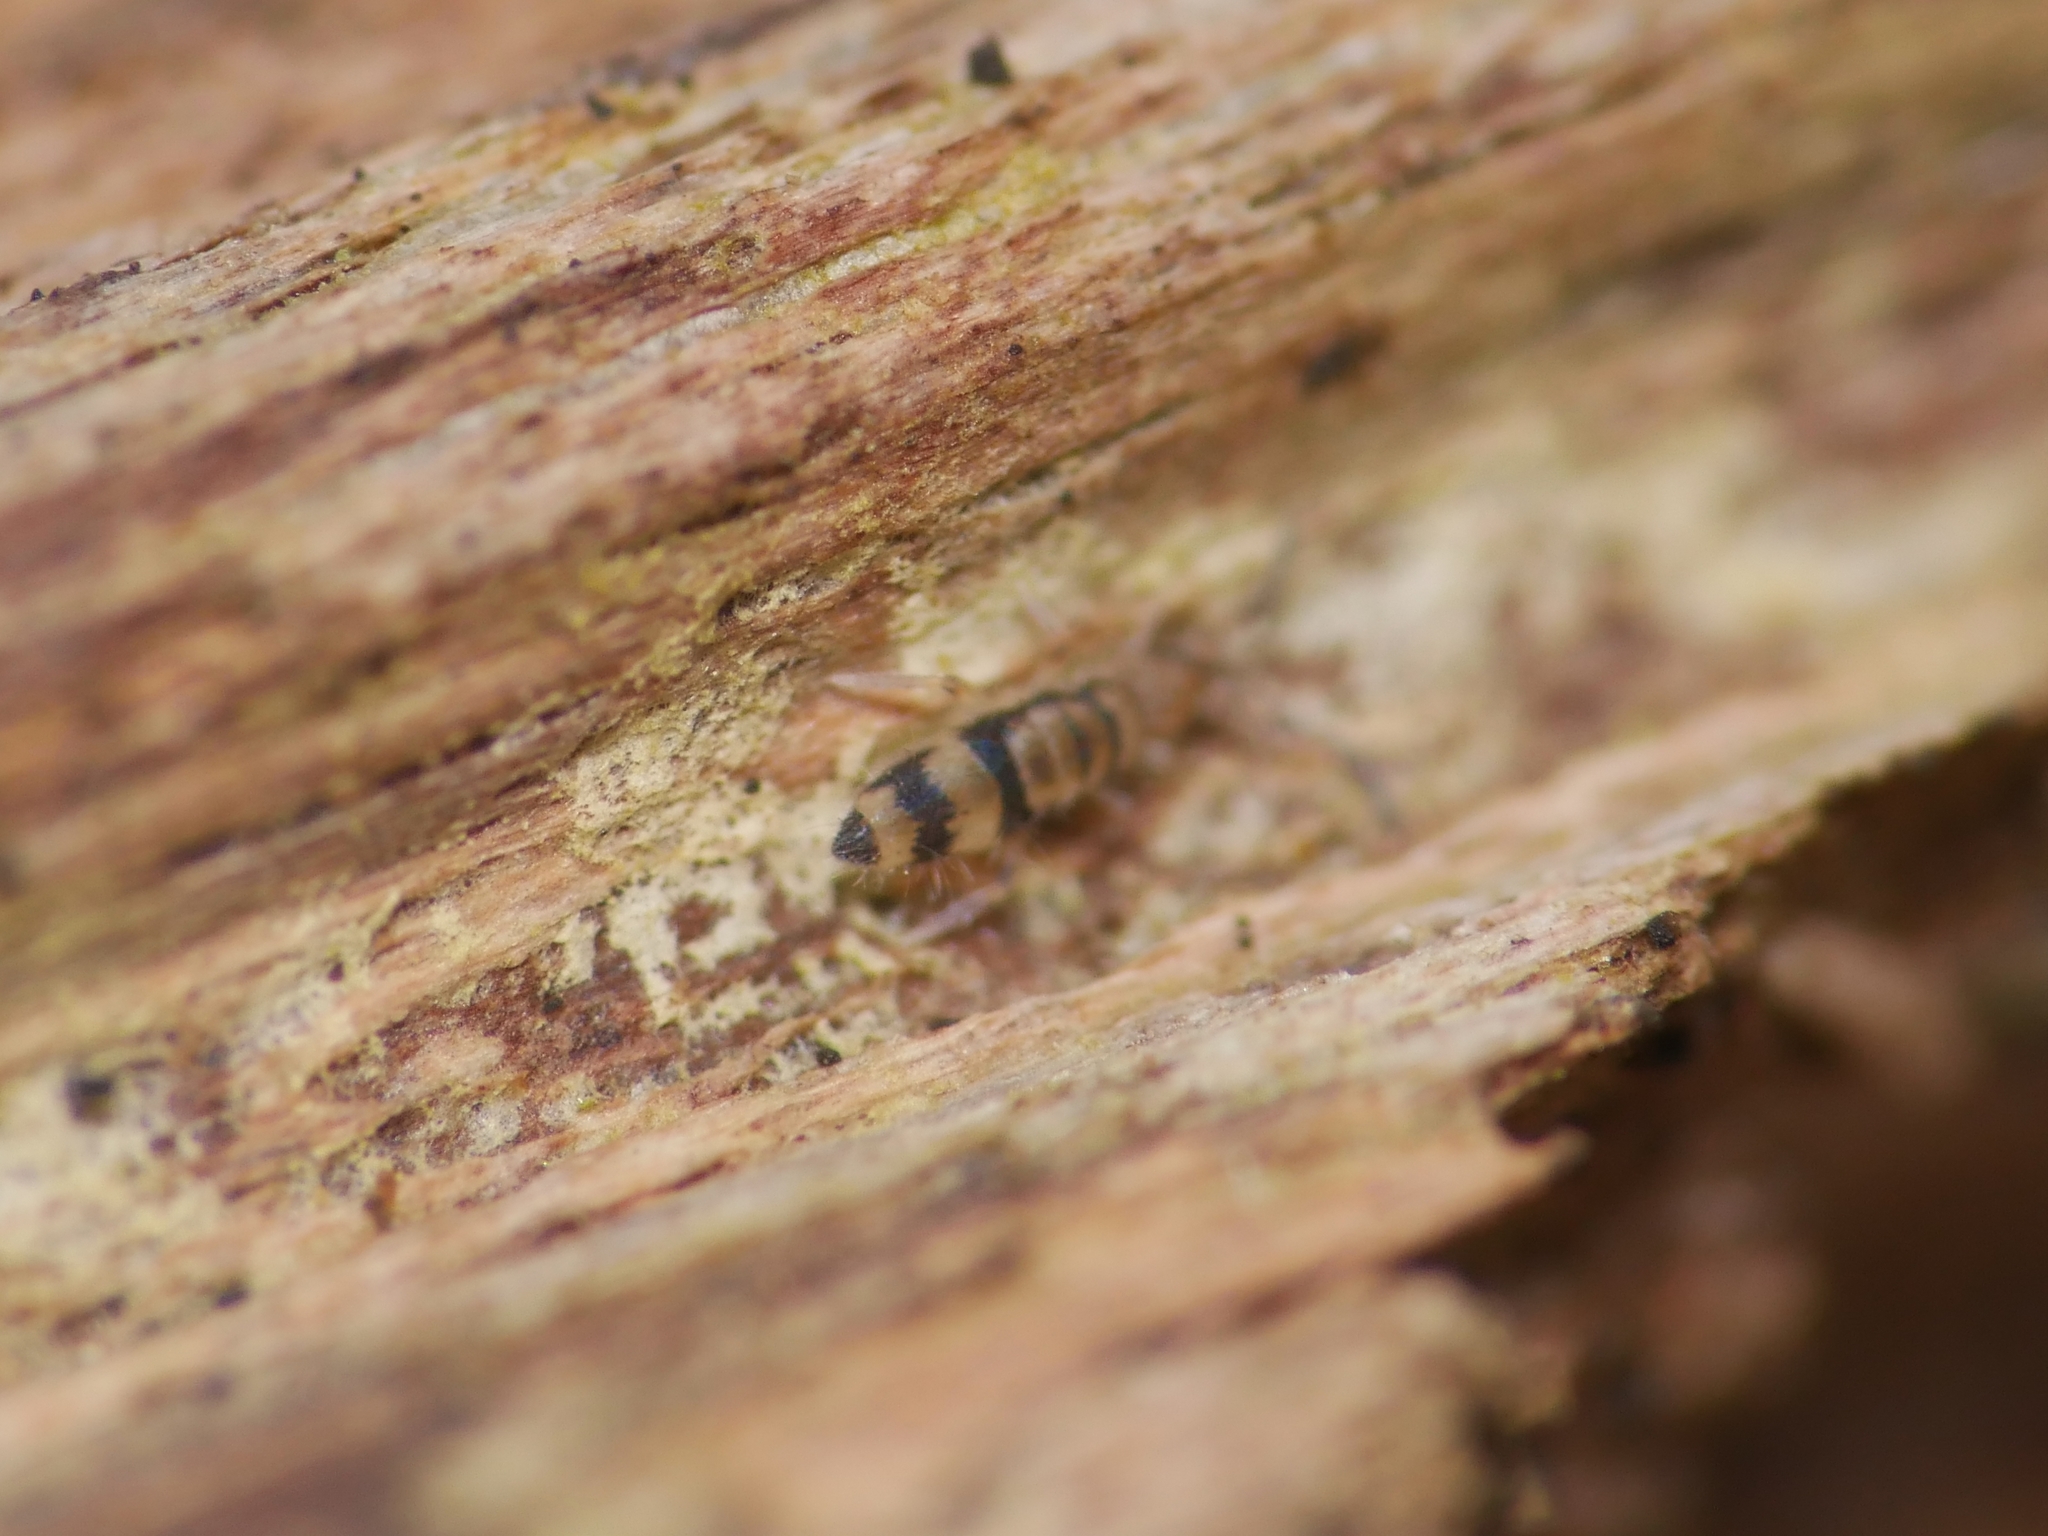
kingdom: Animalia
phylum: Arthropoda
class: Collembola
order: Entomobryomorpha
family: Entomobryidae
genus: Entomobrya
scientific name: Entomobrya corticalis
